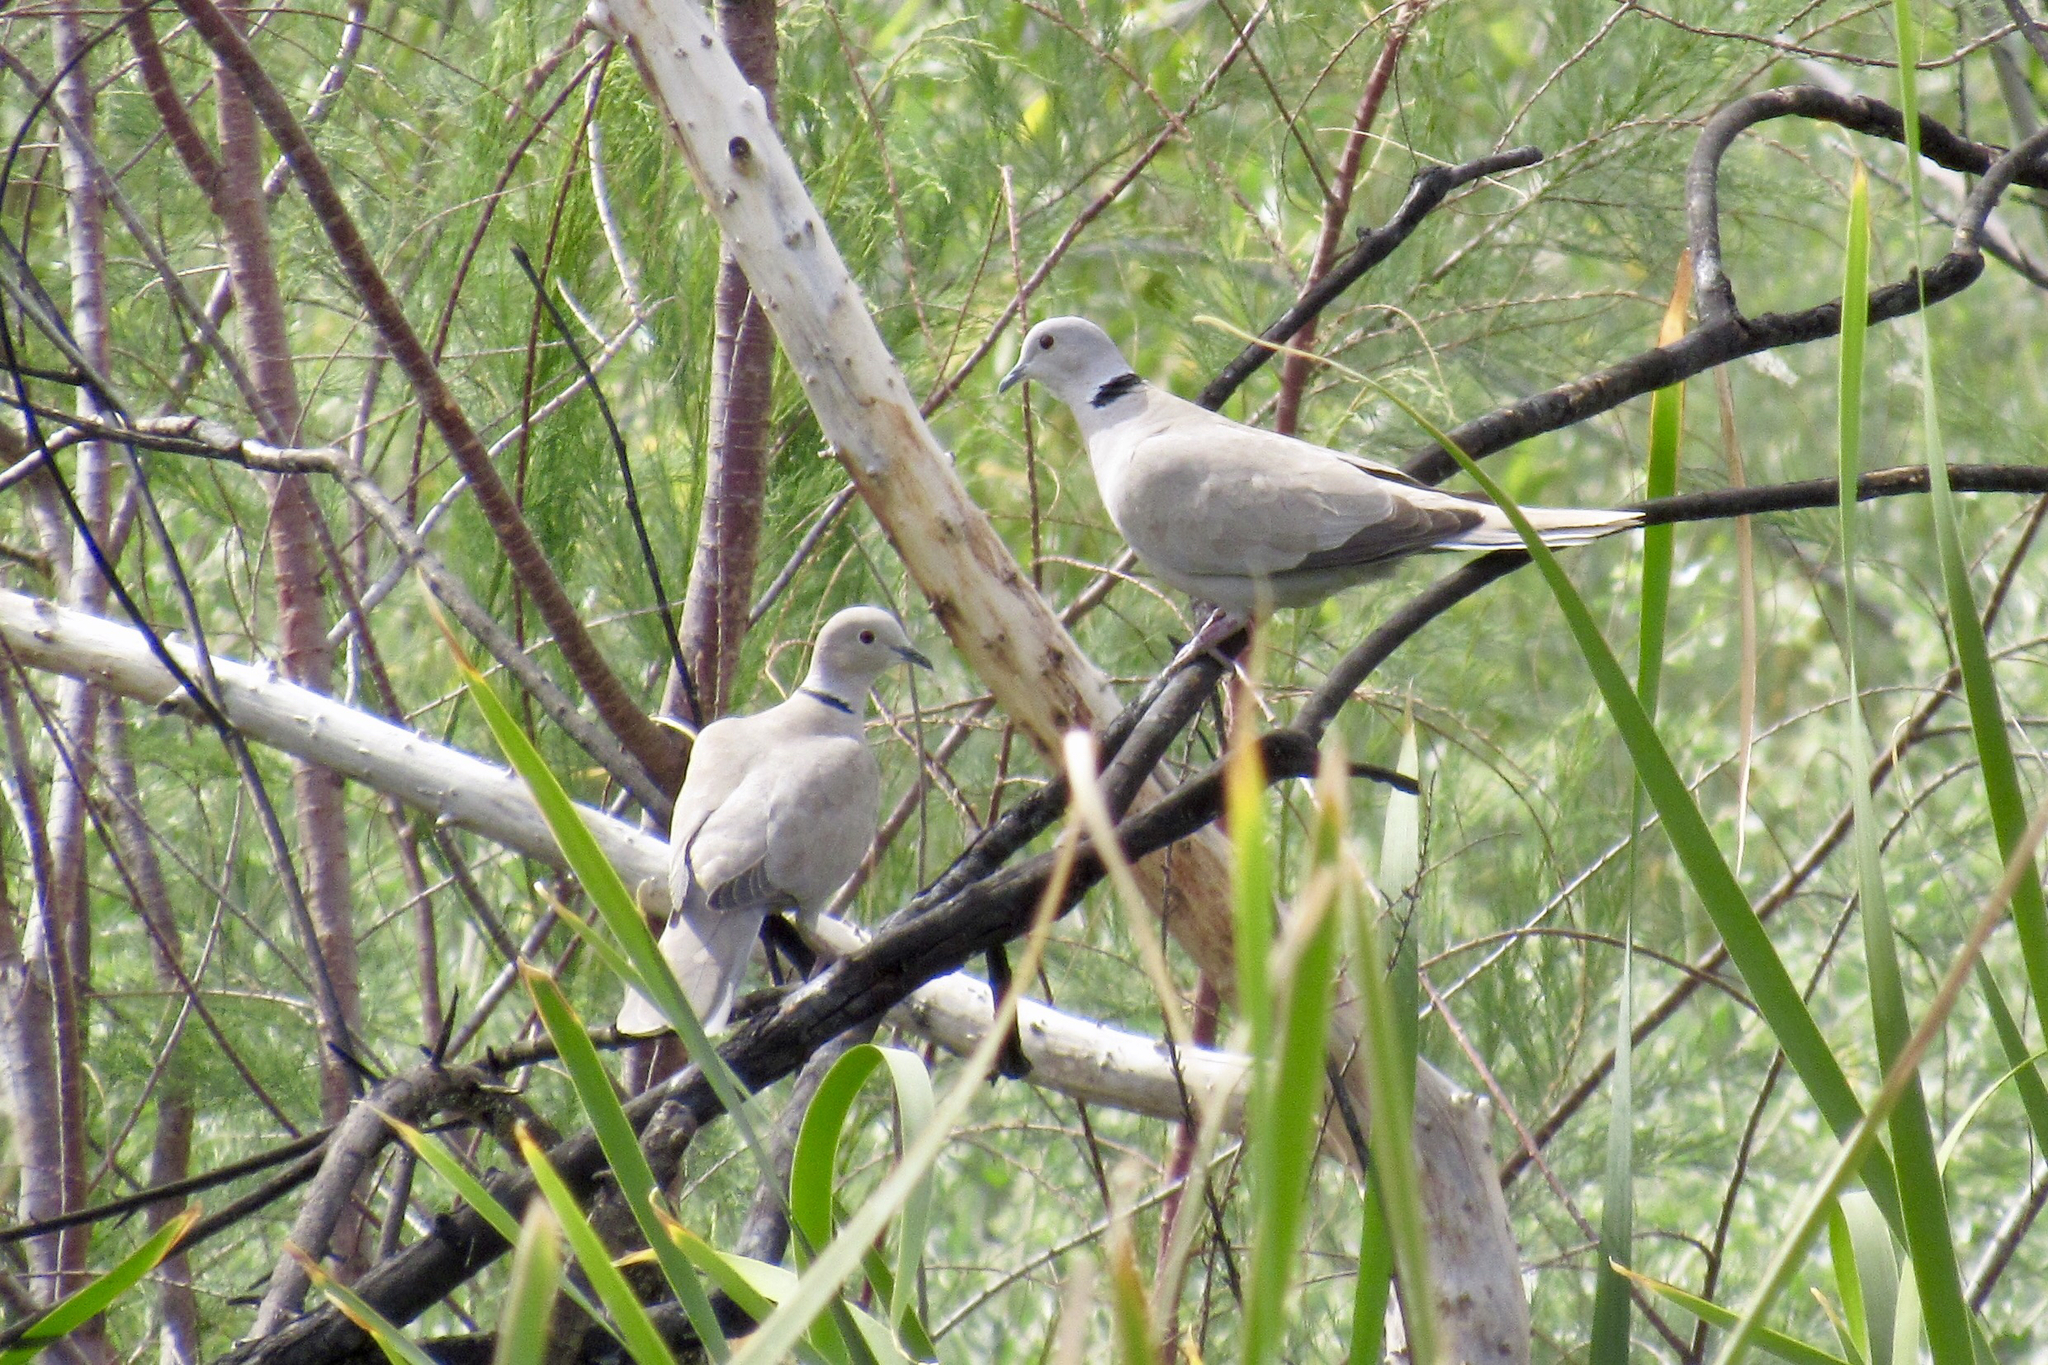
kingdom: Animalia
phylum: Chordata
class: Aves
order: Columbiformes
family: Columbidae
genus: Streptopelia
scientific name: Streptopelia decaocto
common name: Eurasian collared dove
